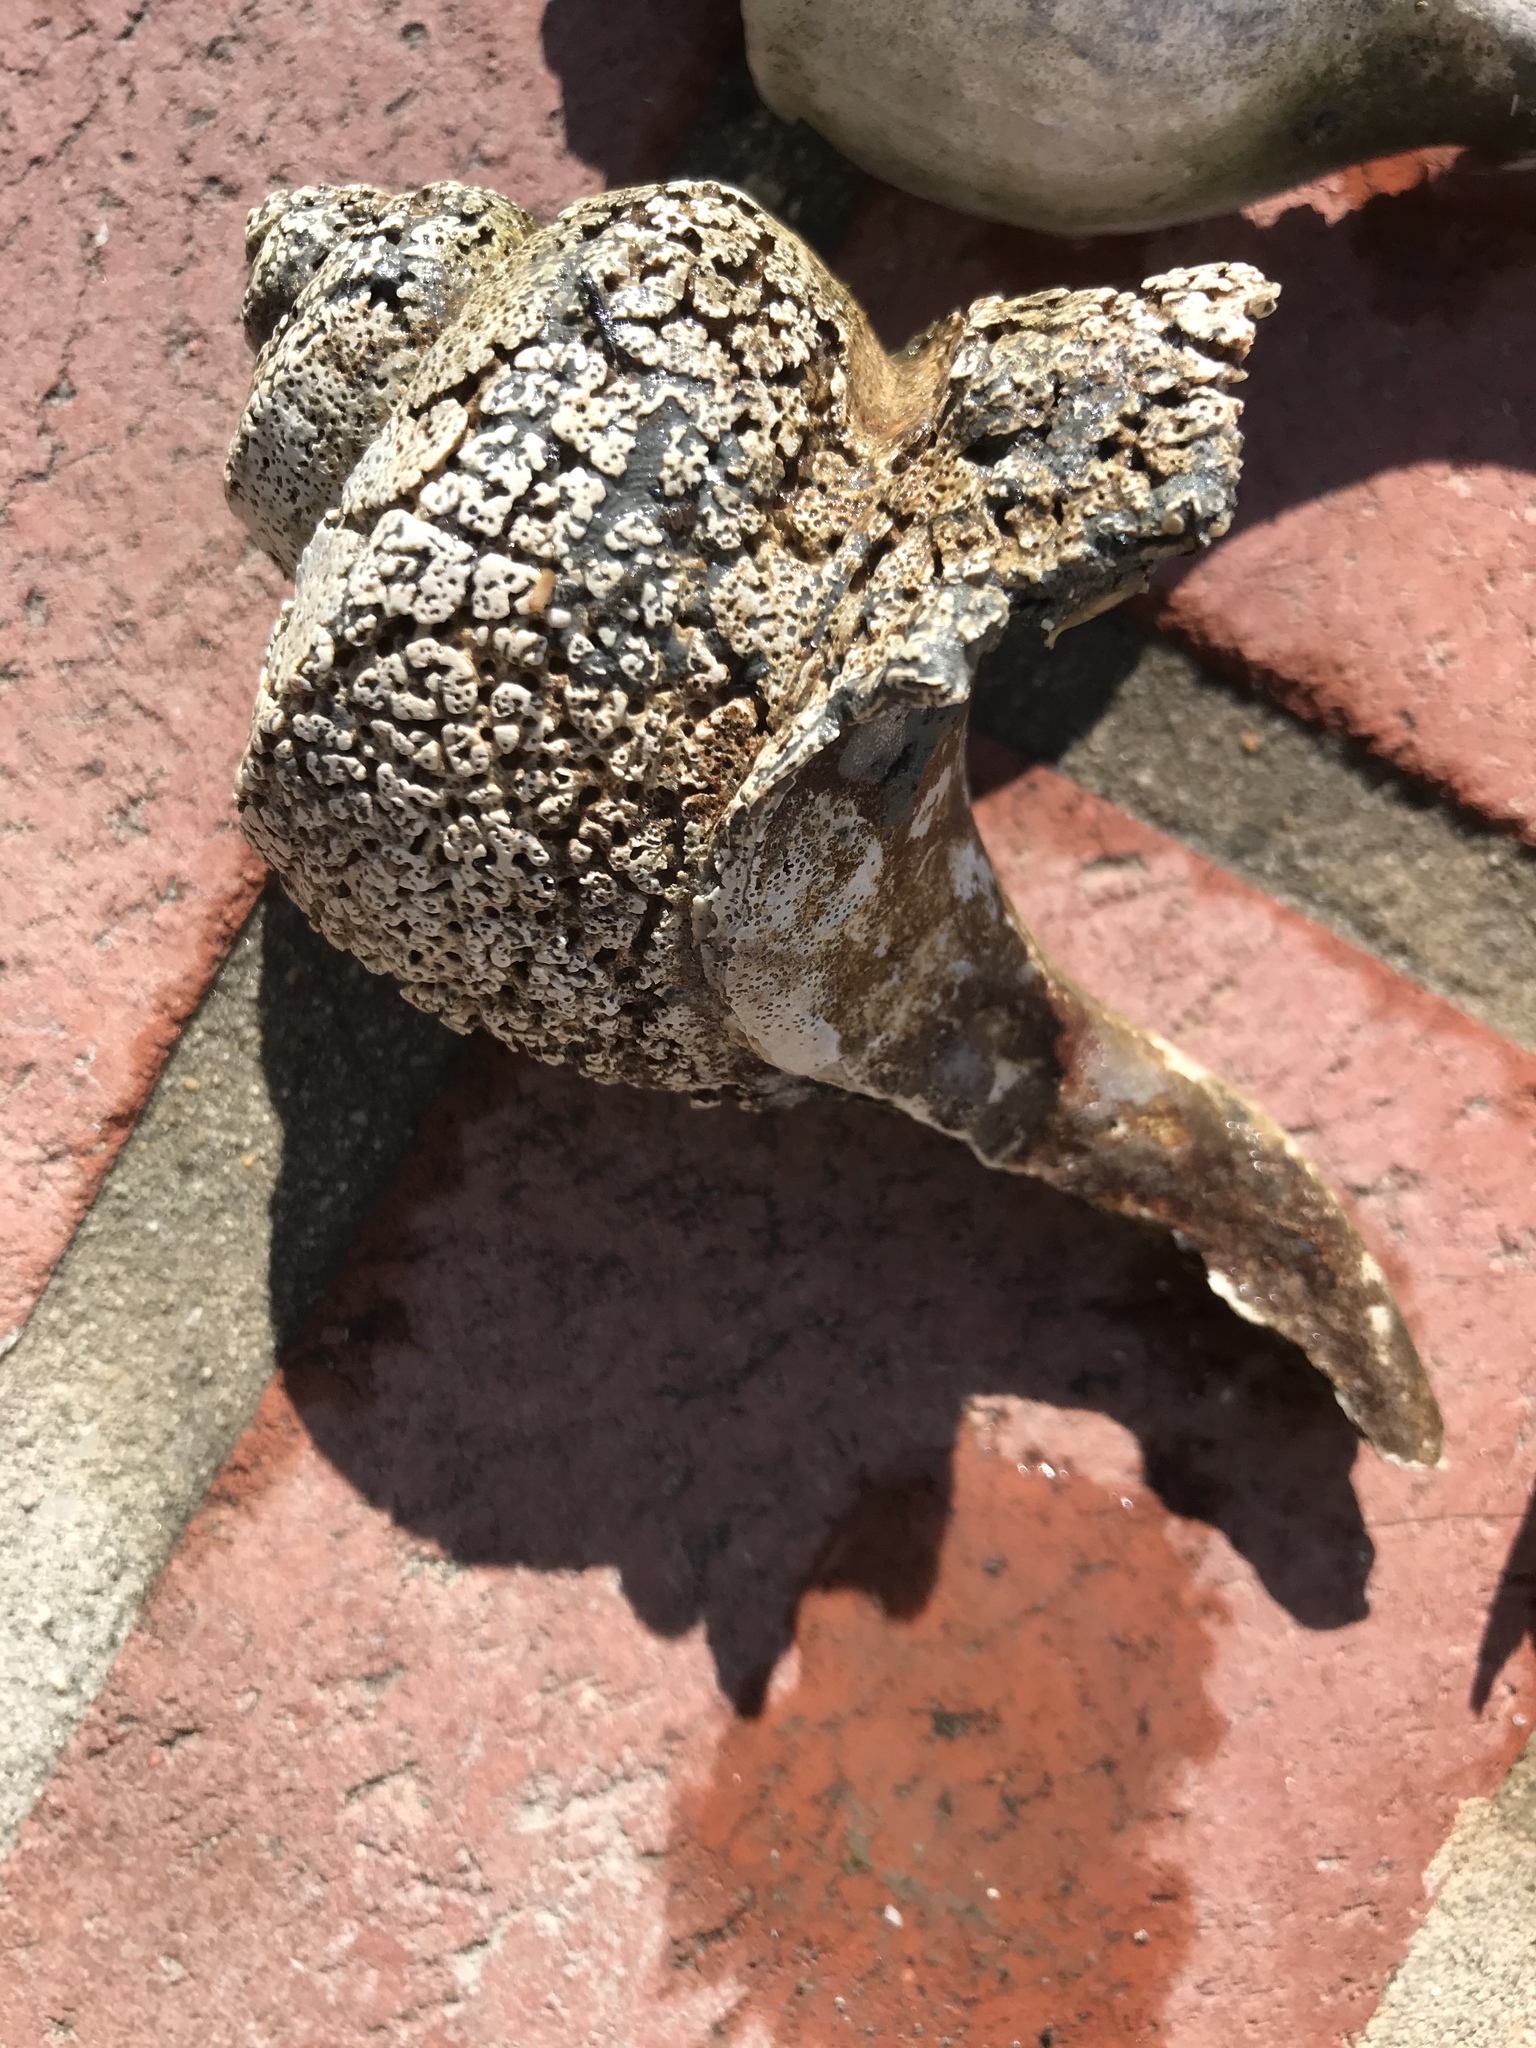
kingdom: Animalia
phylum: Mollusca
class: Gastropoda
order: Neogastropoda
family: Busyconidae
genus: Busycotypus
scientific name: Busycotypus canaliculatus
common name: Channeled whelk
